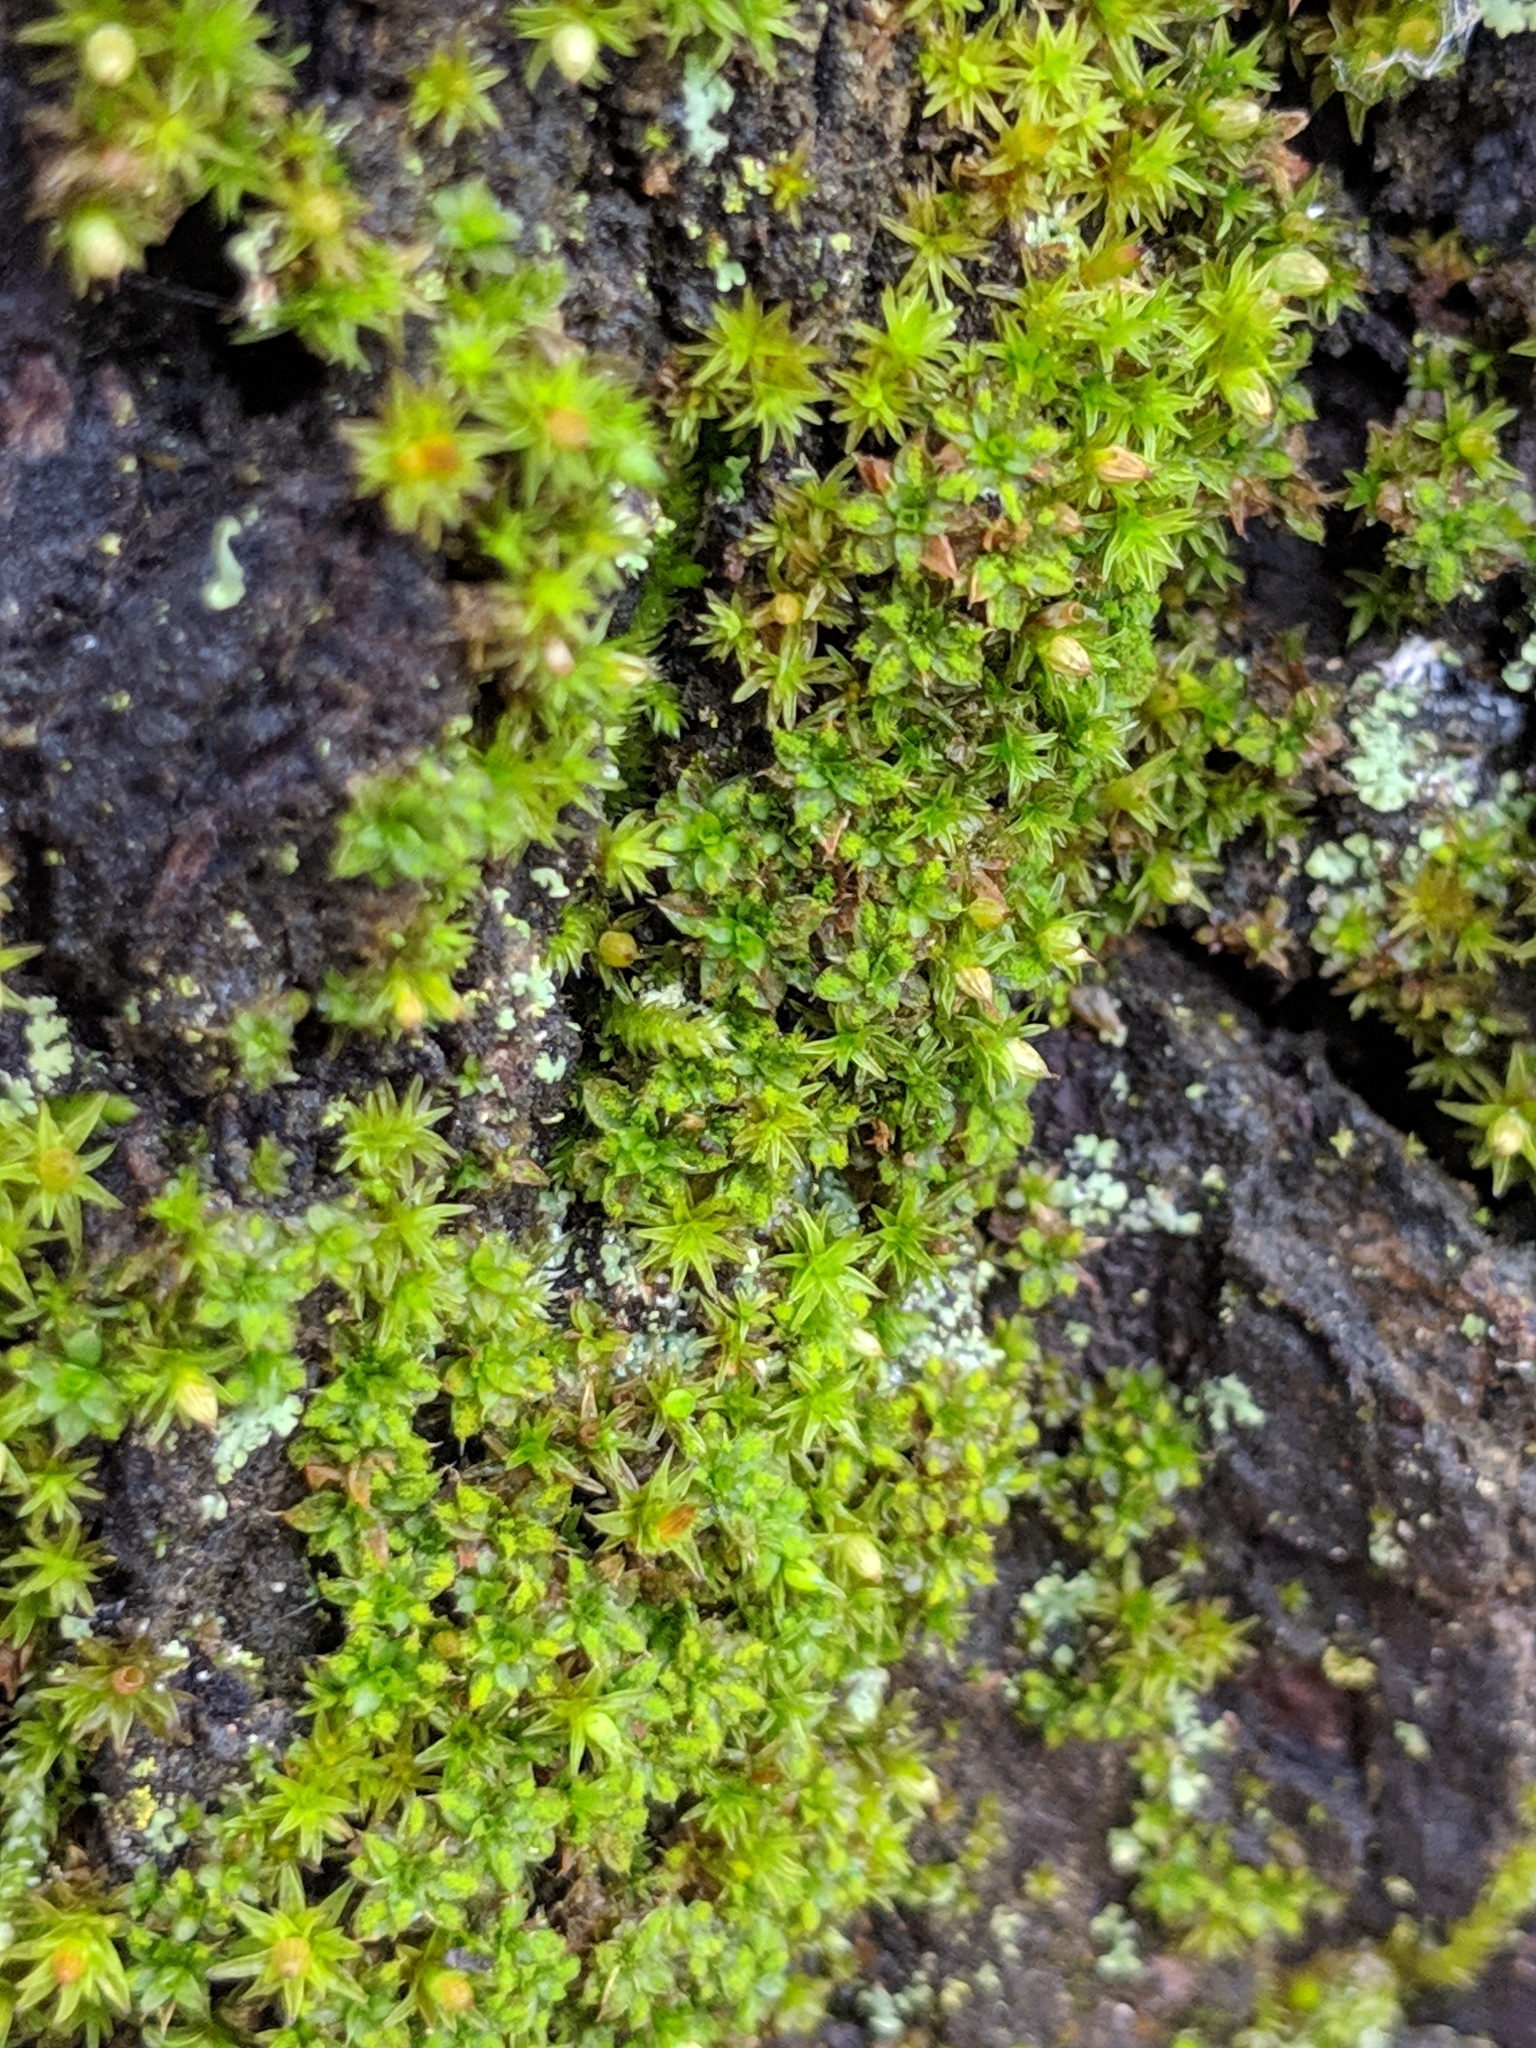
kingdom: Plantae
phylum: Bryophyta
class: Bryopsida
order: Pottiales
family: Pottiaceae
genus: Syntrichia
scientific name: Syntrichia papillosa
